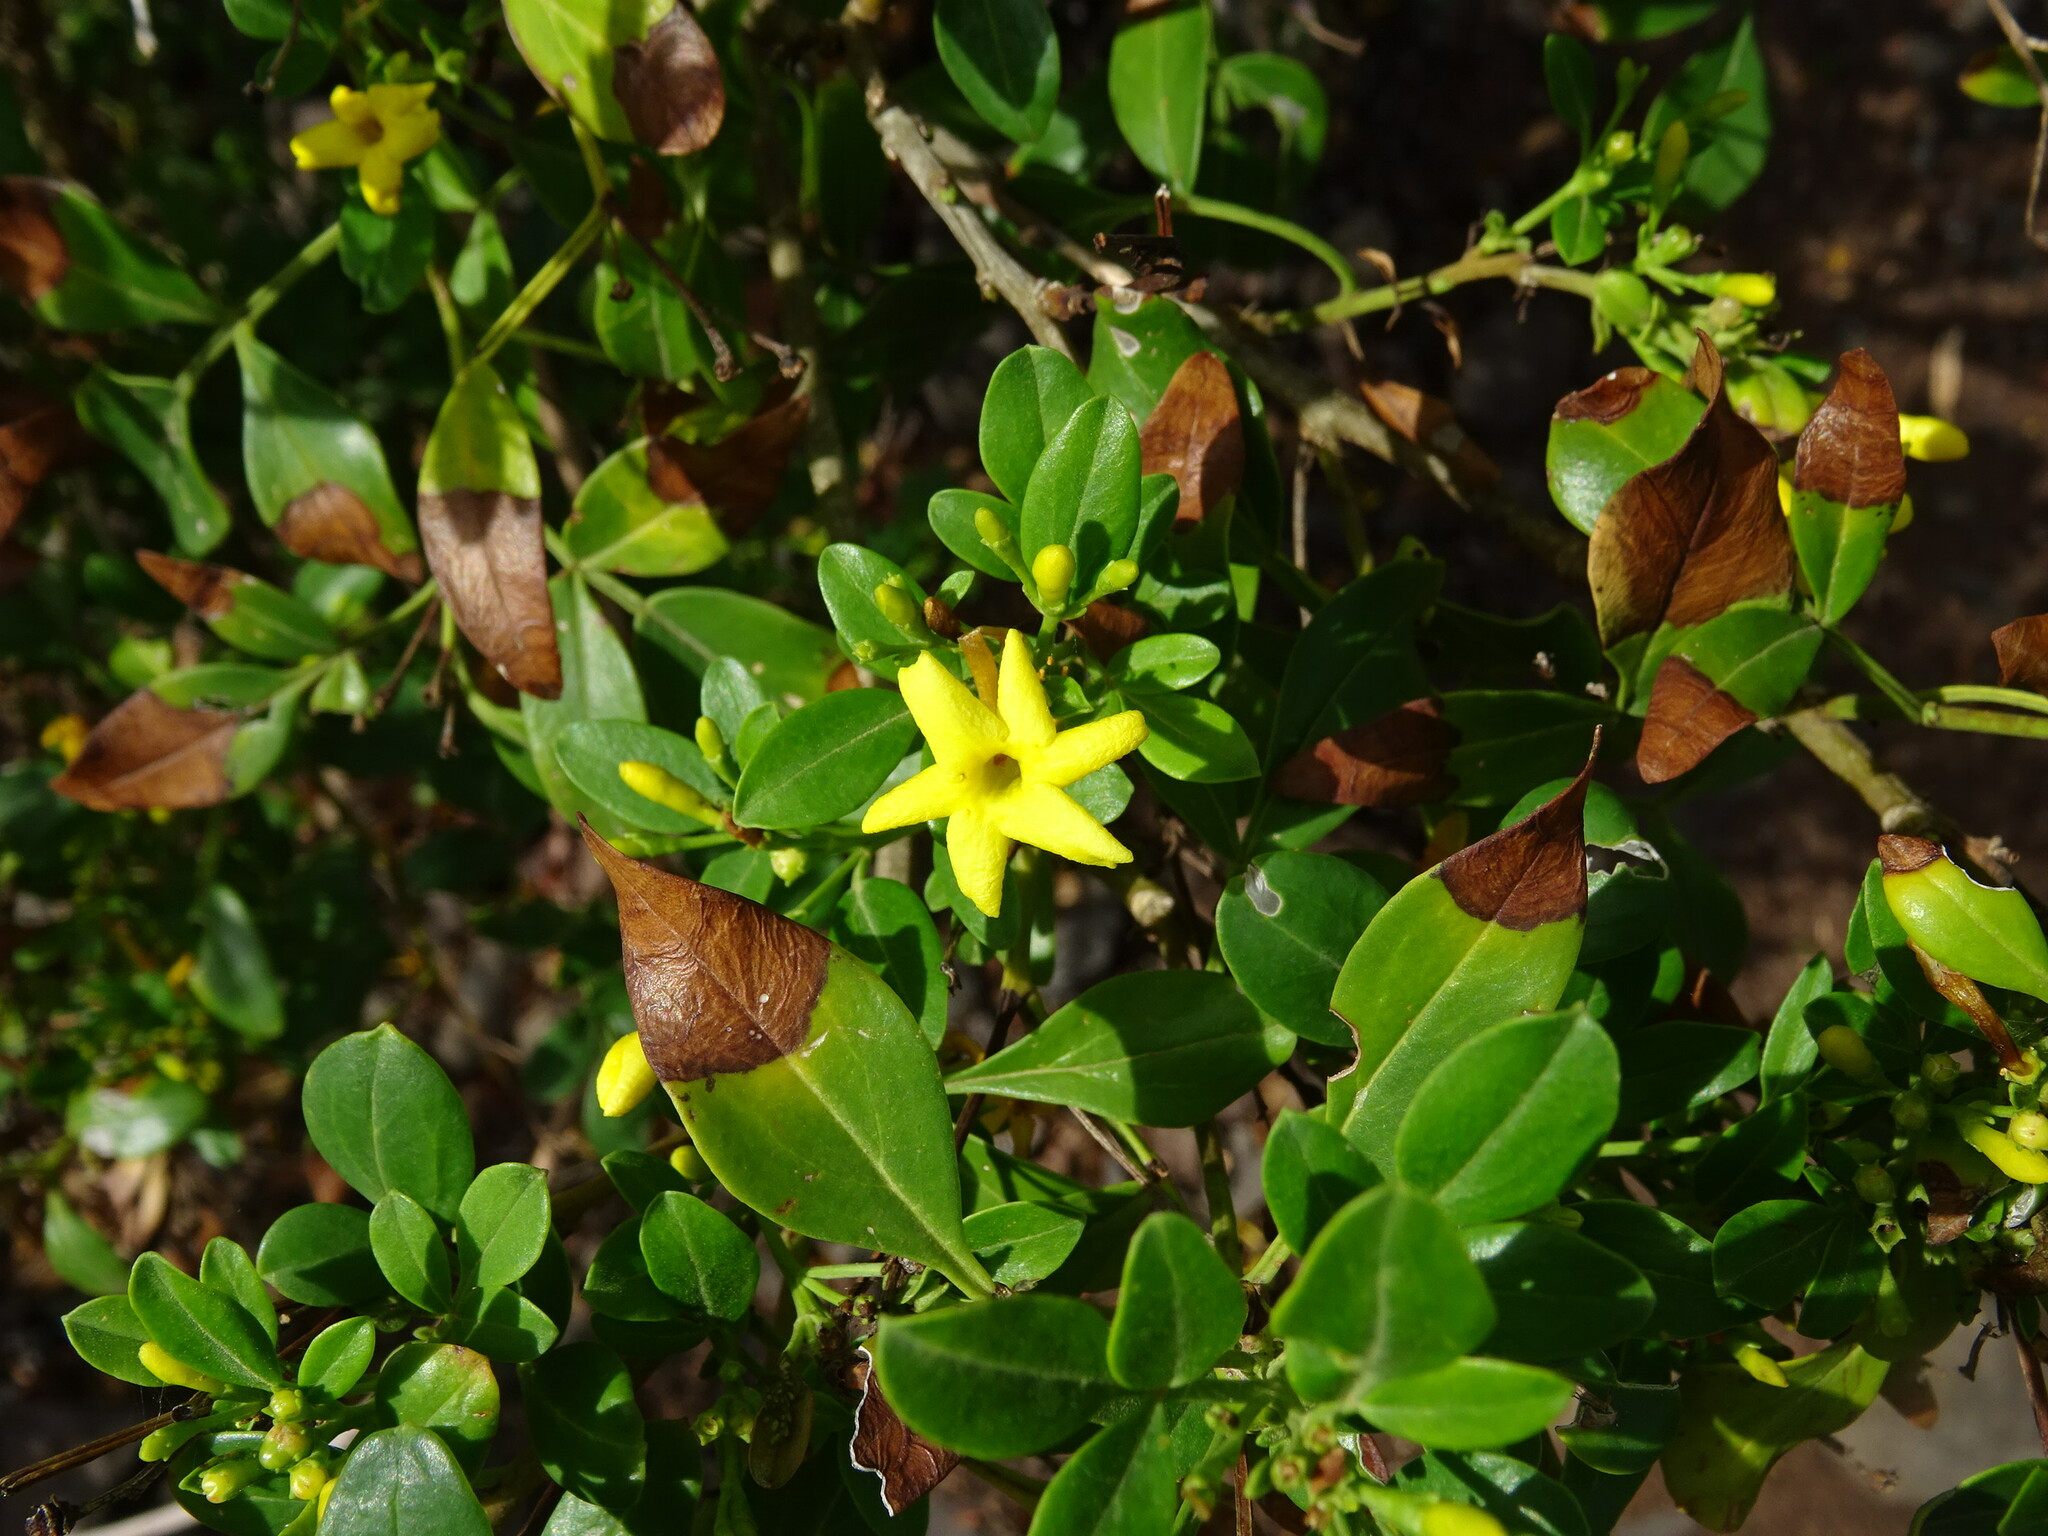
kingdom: Plantae
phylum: Tracheophyta
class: Magnoliopsida
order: Lamiales
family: Oleaceae
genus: Chrysojasminum
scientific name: Chrysojasminum odoratissimum
